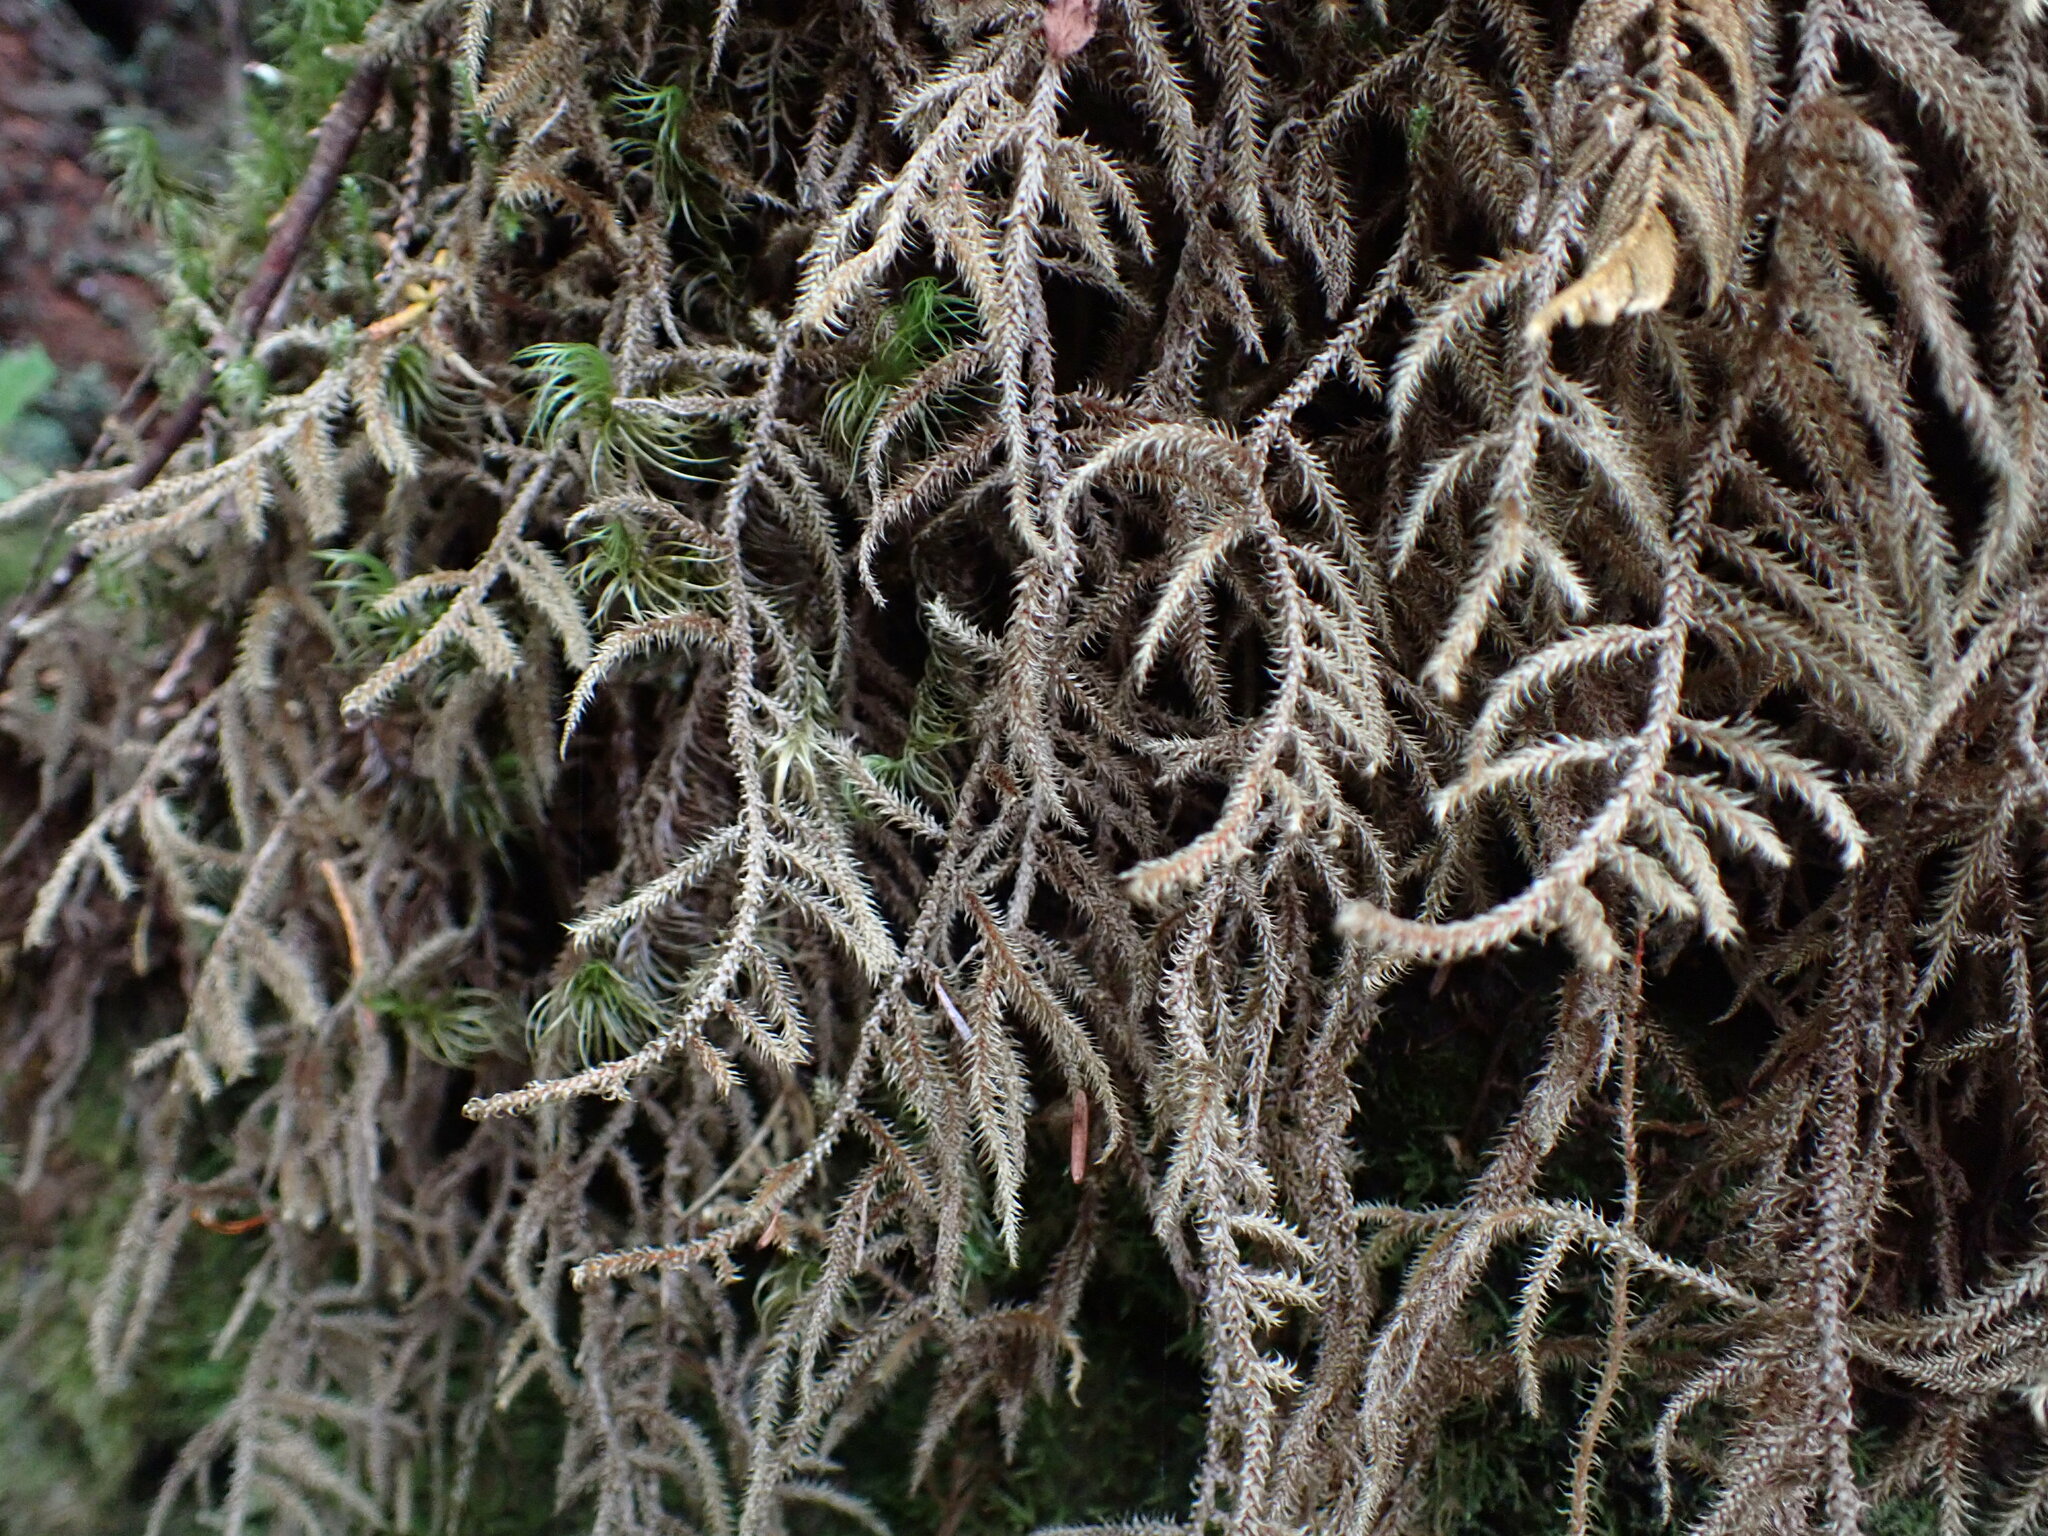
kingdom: Plantae
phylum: Bryophyta
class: Bryopsida
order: Hypnales
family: Hylocomiaceae
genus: Rhytidiadelphus
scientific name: Rhytidiadelphus loreus
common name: Lanky moss
